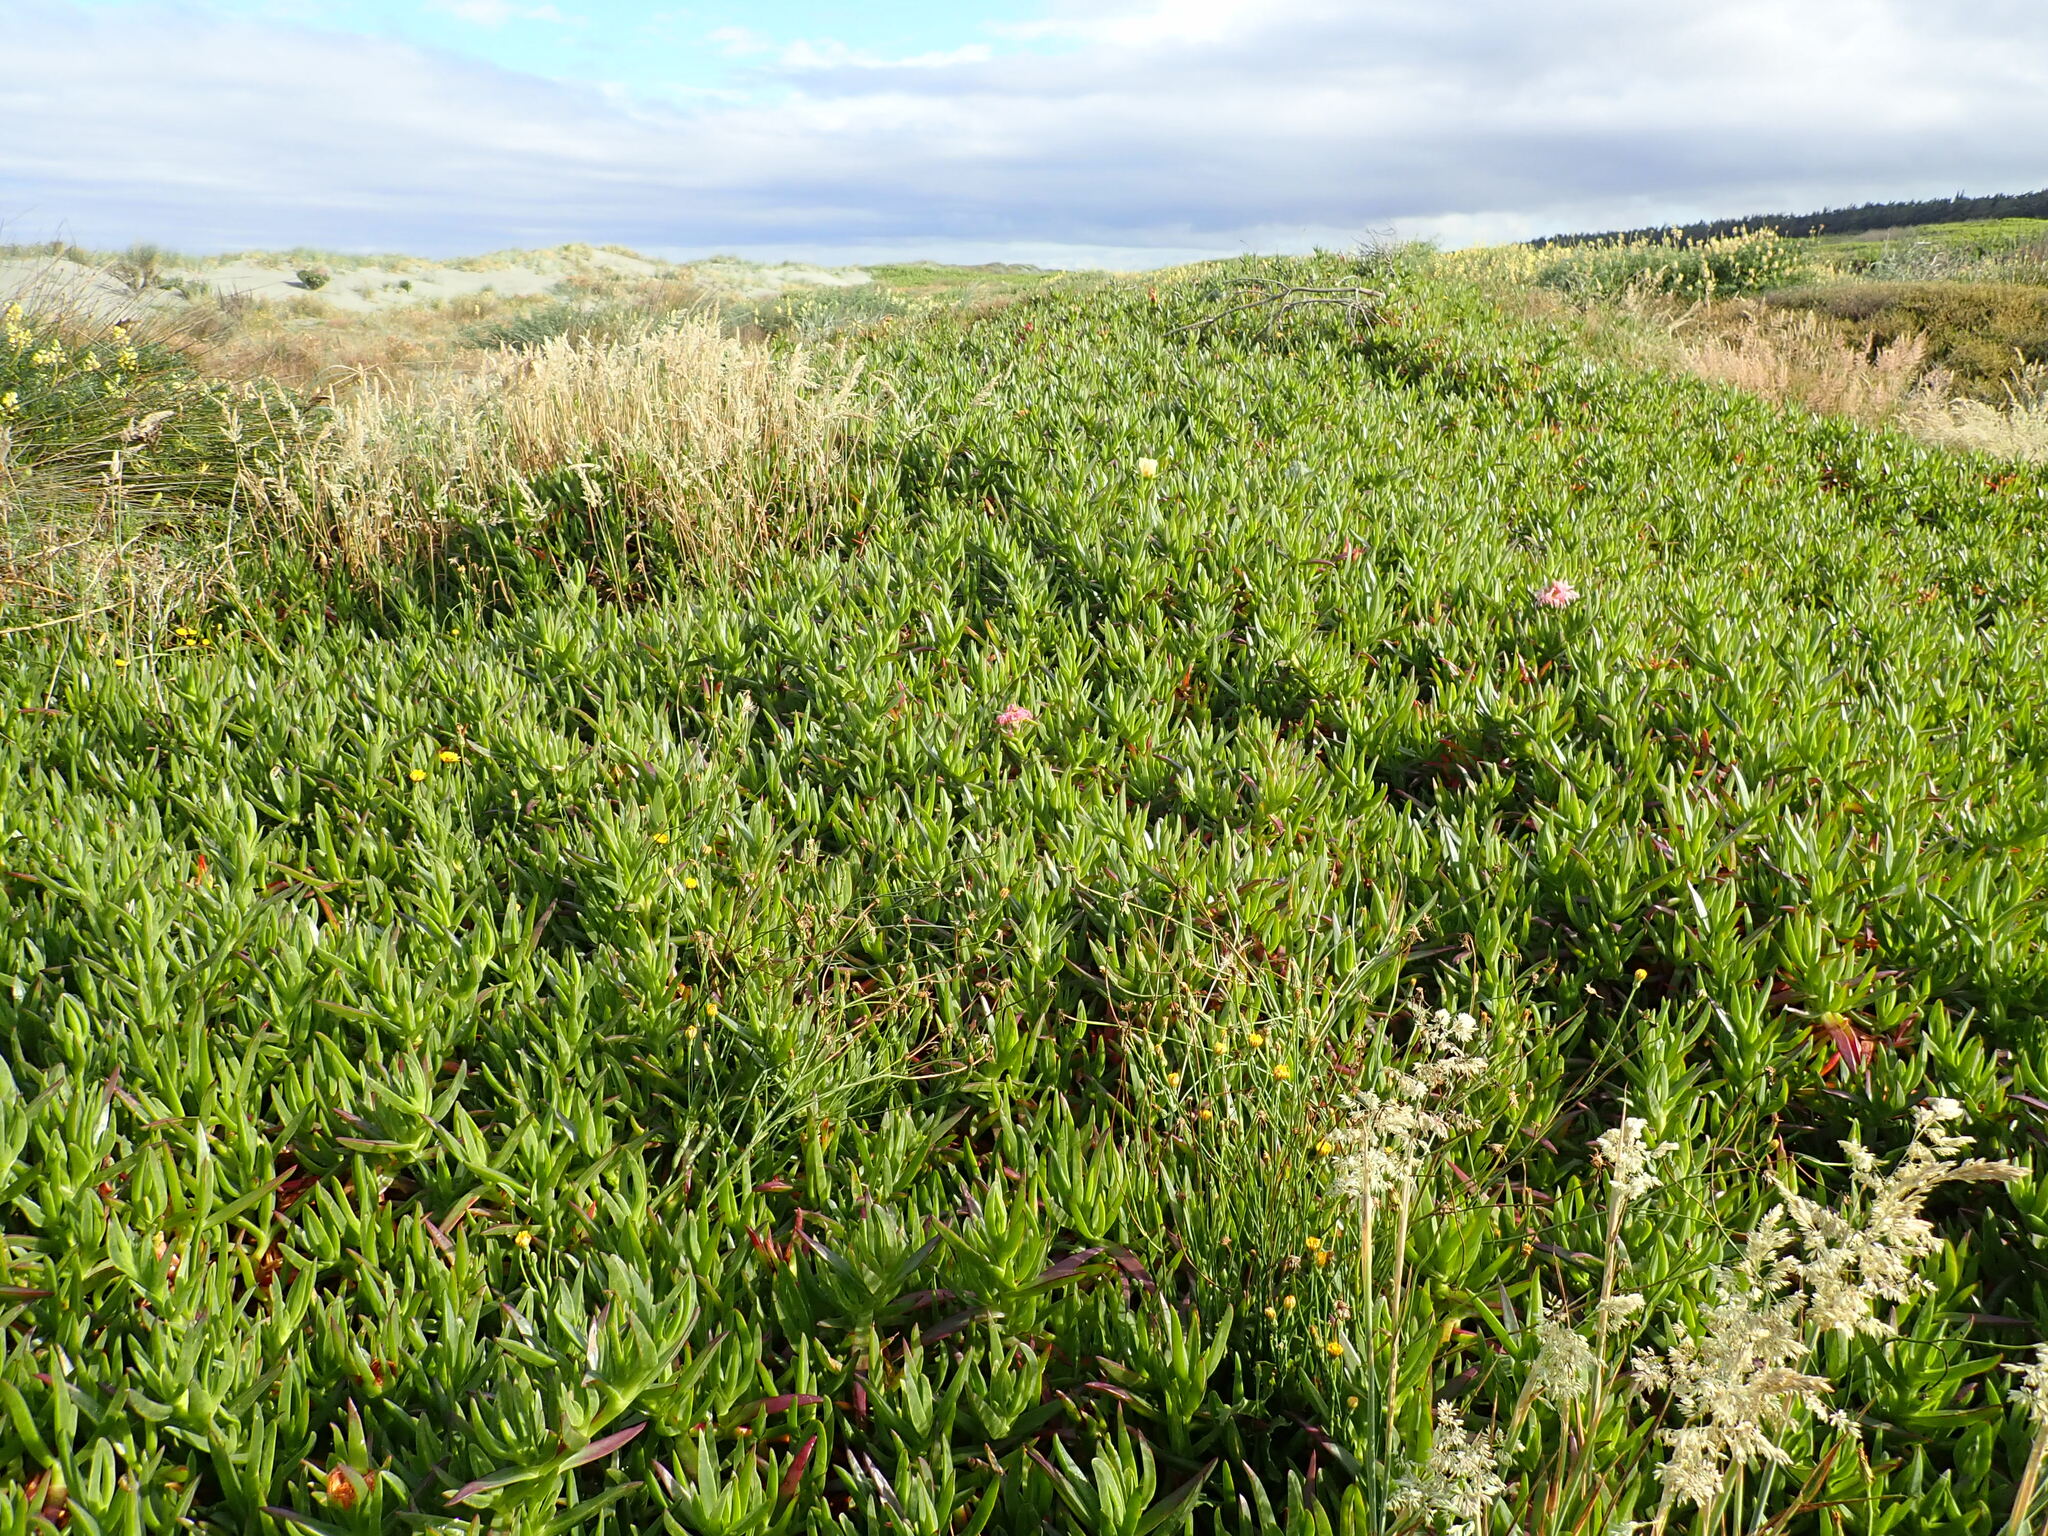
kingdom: Plantae
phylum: Tracheophyta
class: Magnoliopsida
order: Caryophyllales
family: Aizoaceae
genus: Carpobrotus
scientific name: Carpobrotus edulis
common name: Hottentot-fig
